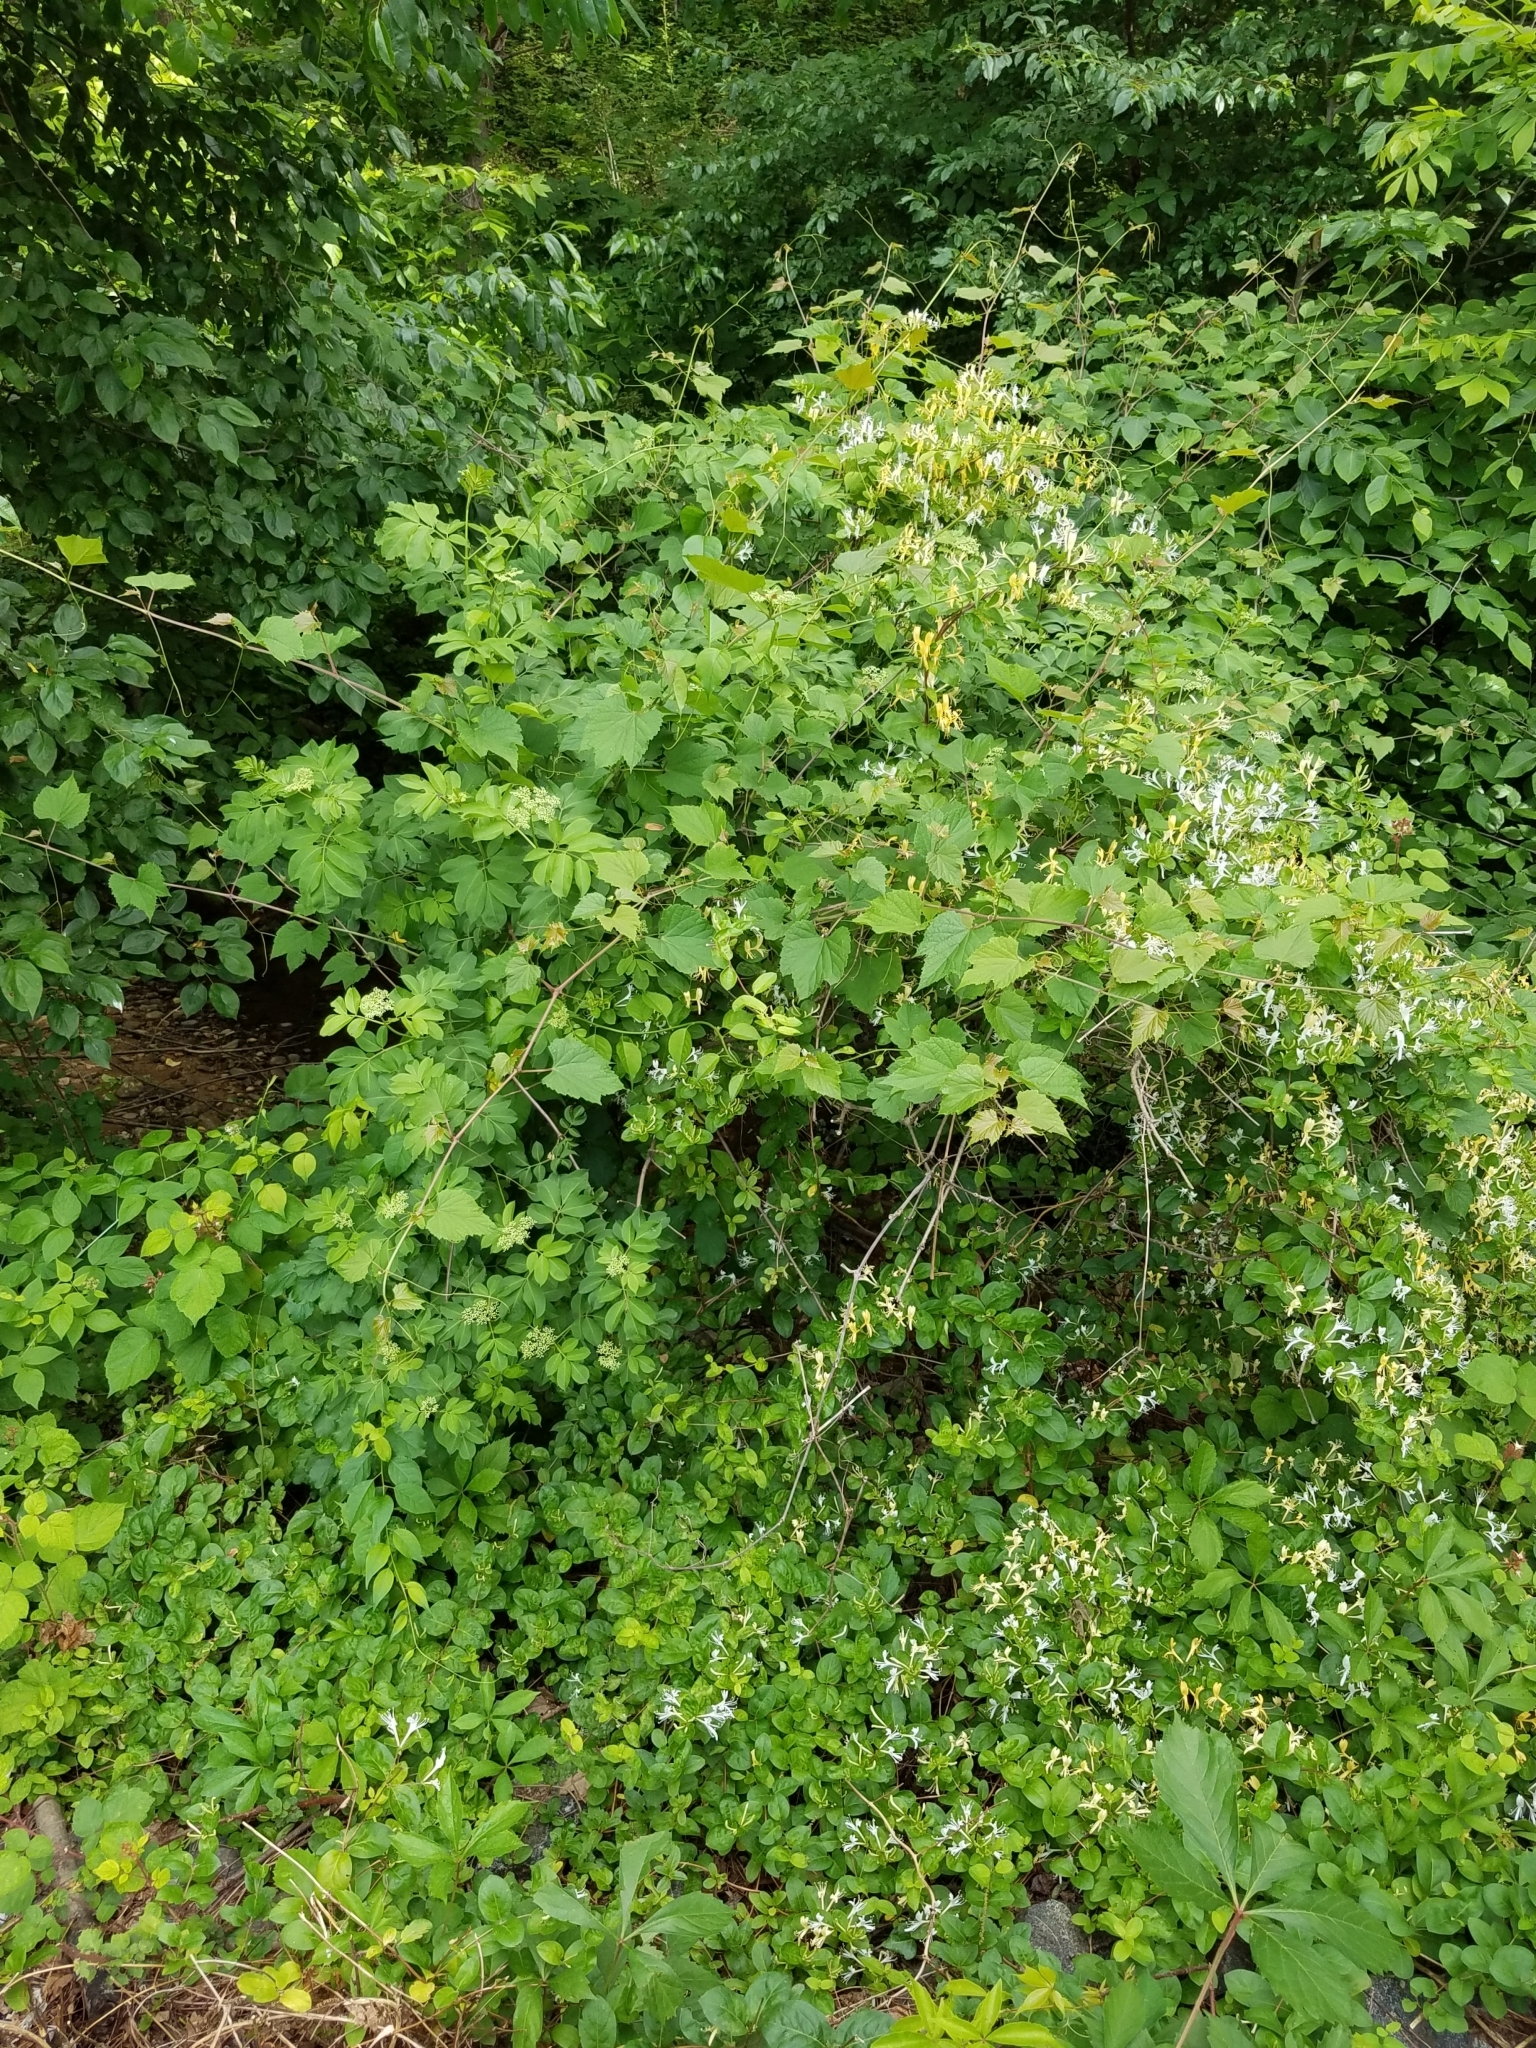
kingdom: Plantae
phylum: Tracheophyta
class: Magnoliopsida
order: Dipsacales
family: Viburnaceae
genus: Sambucus
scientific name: Sambucus canadensis
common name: American elder
